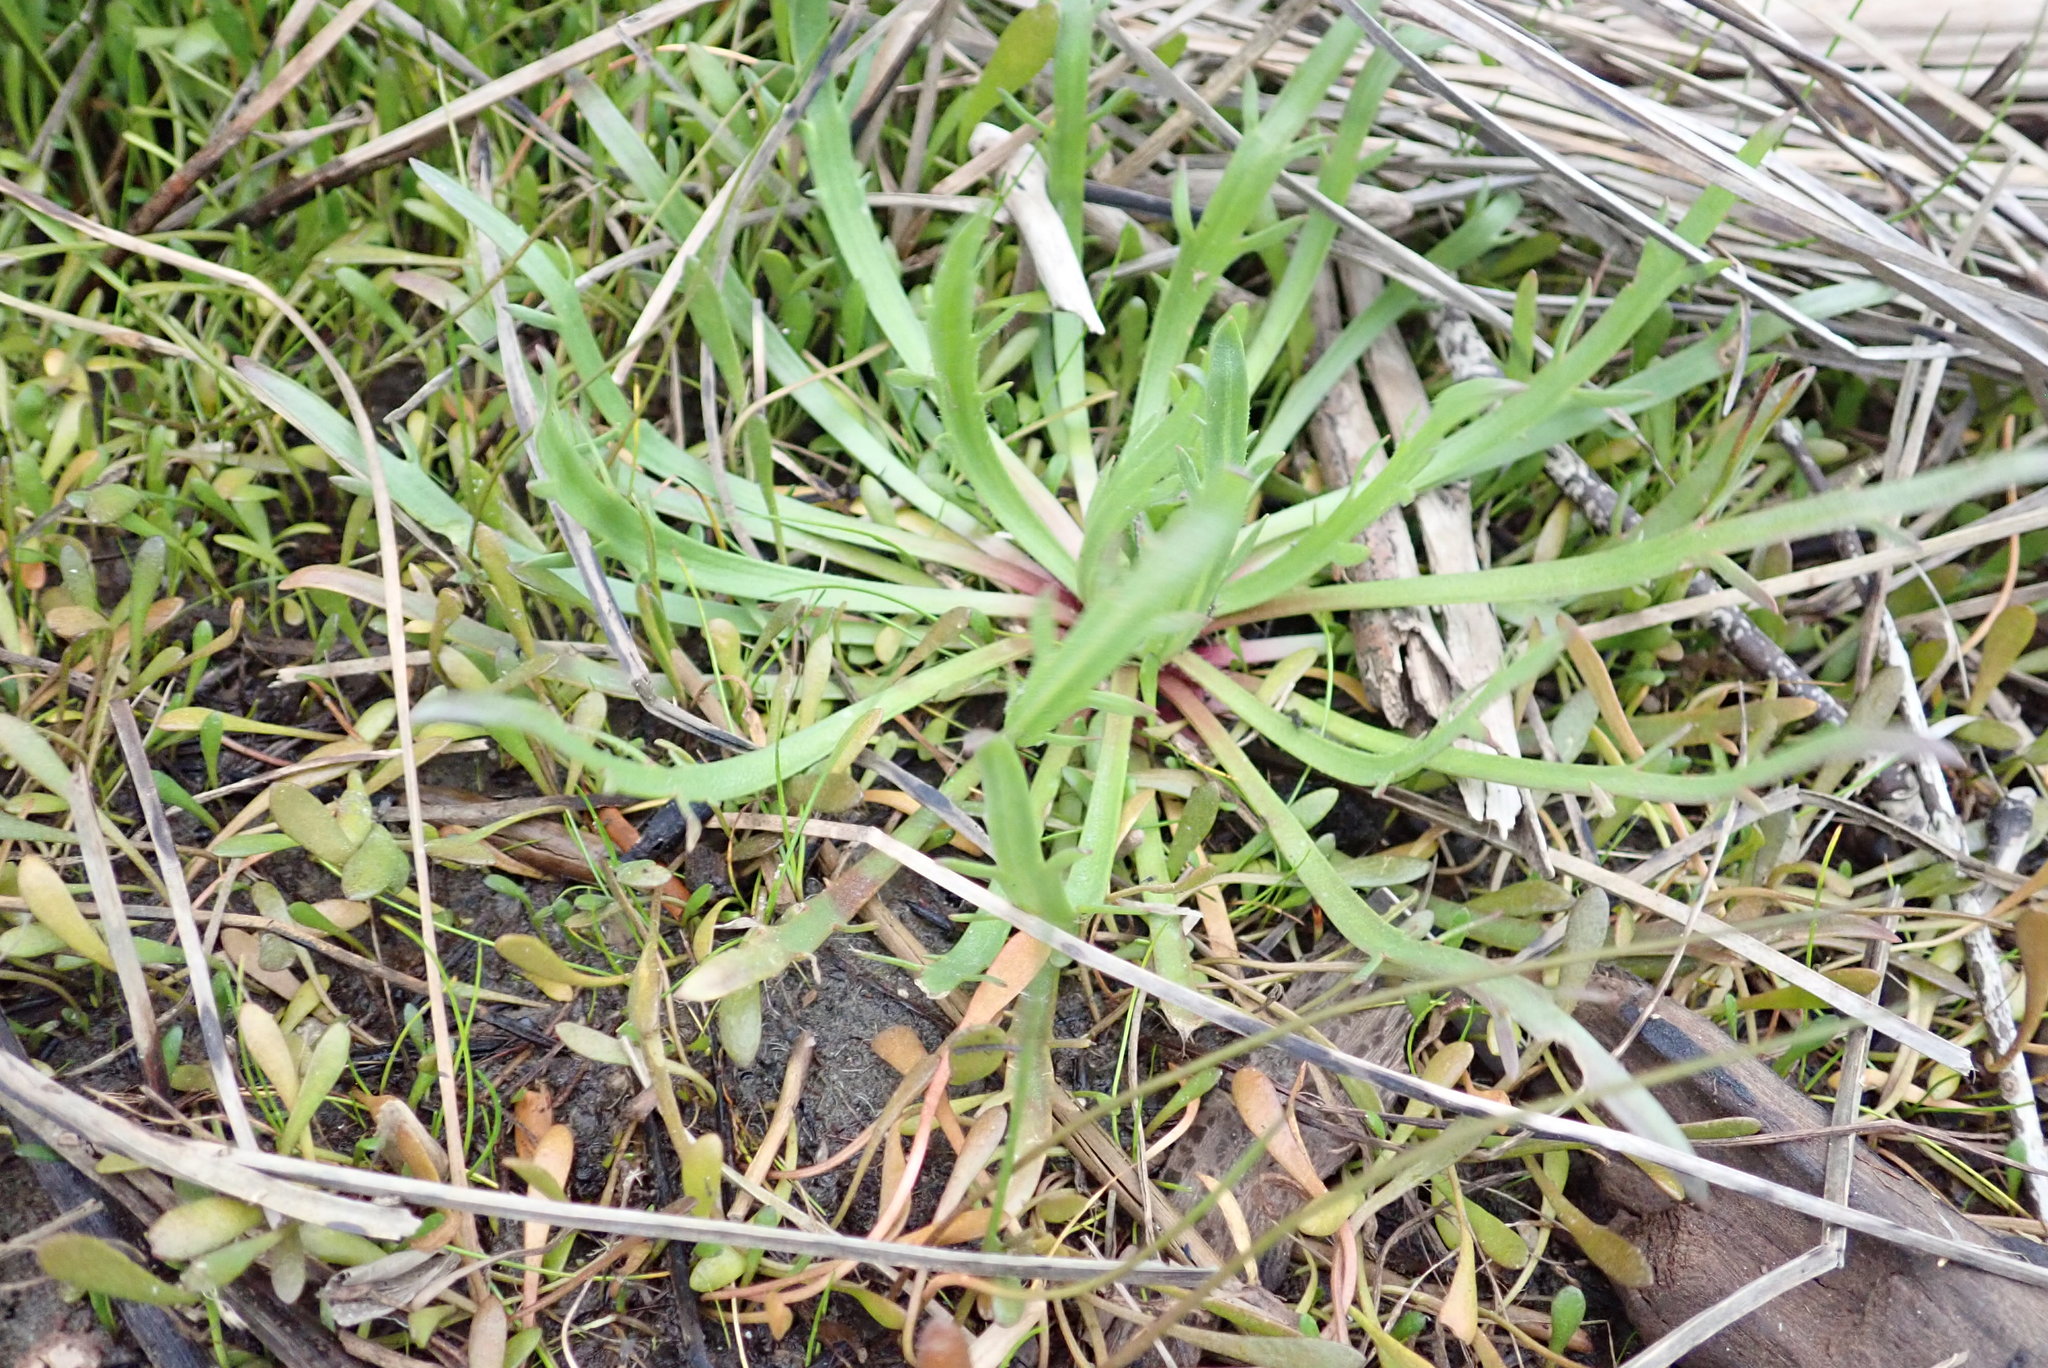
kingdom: Plantae
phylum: Tracheophyta
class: Magnoliopsida
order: Lamiales
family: Plantaginaceae
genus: Plantago
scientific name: Plantago coronopus
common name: Buck's-horn plantain
